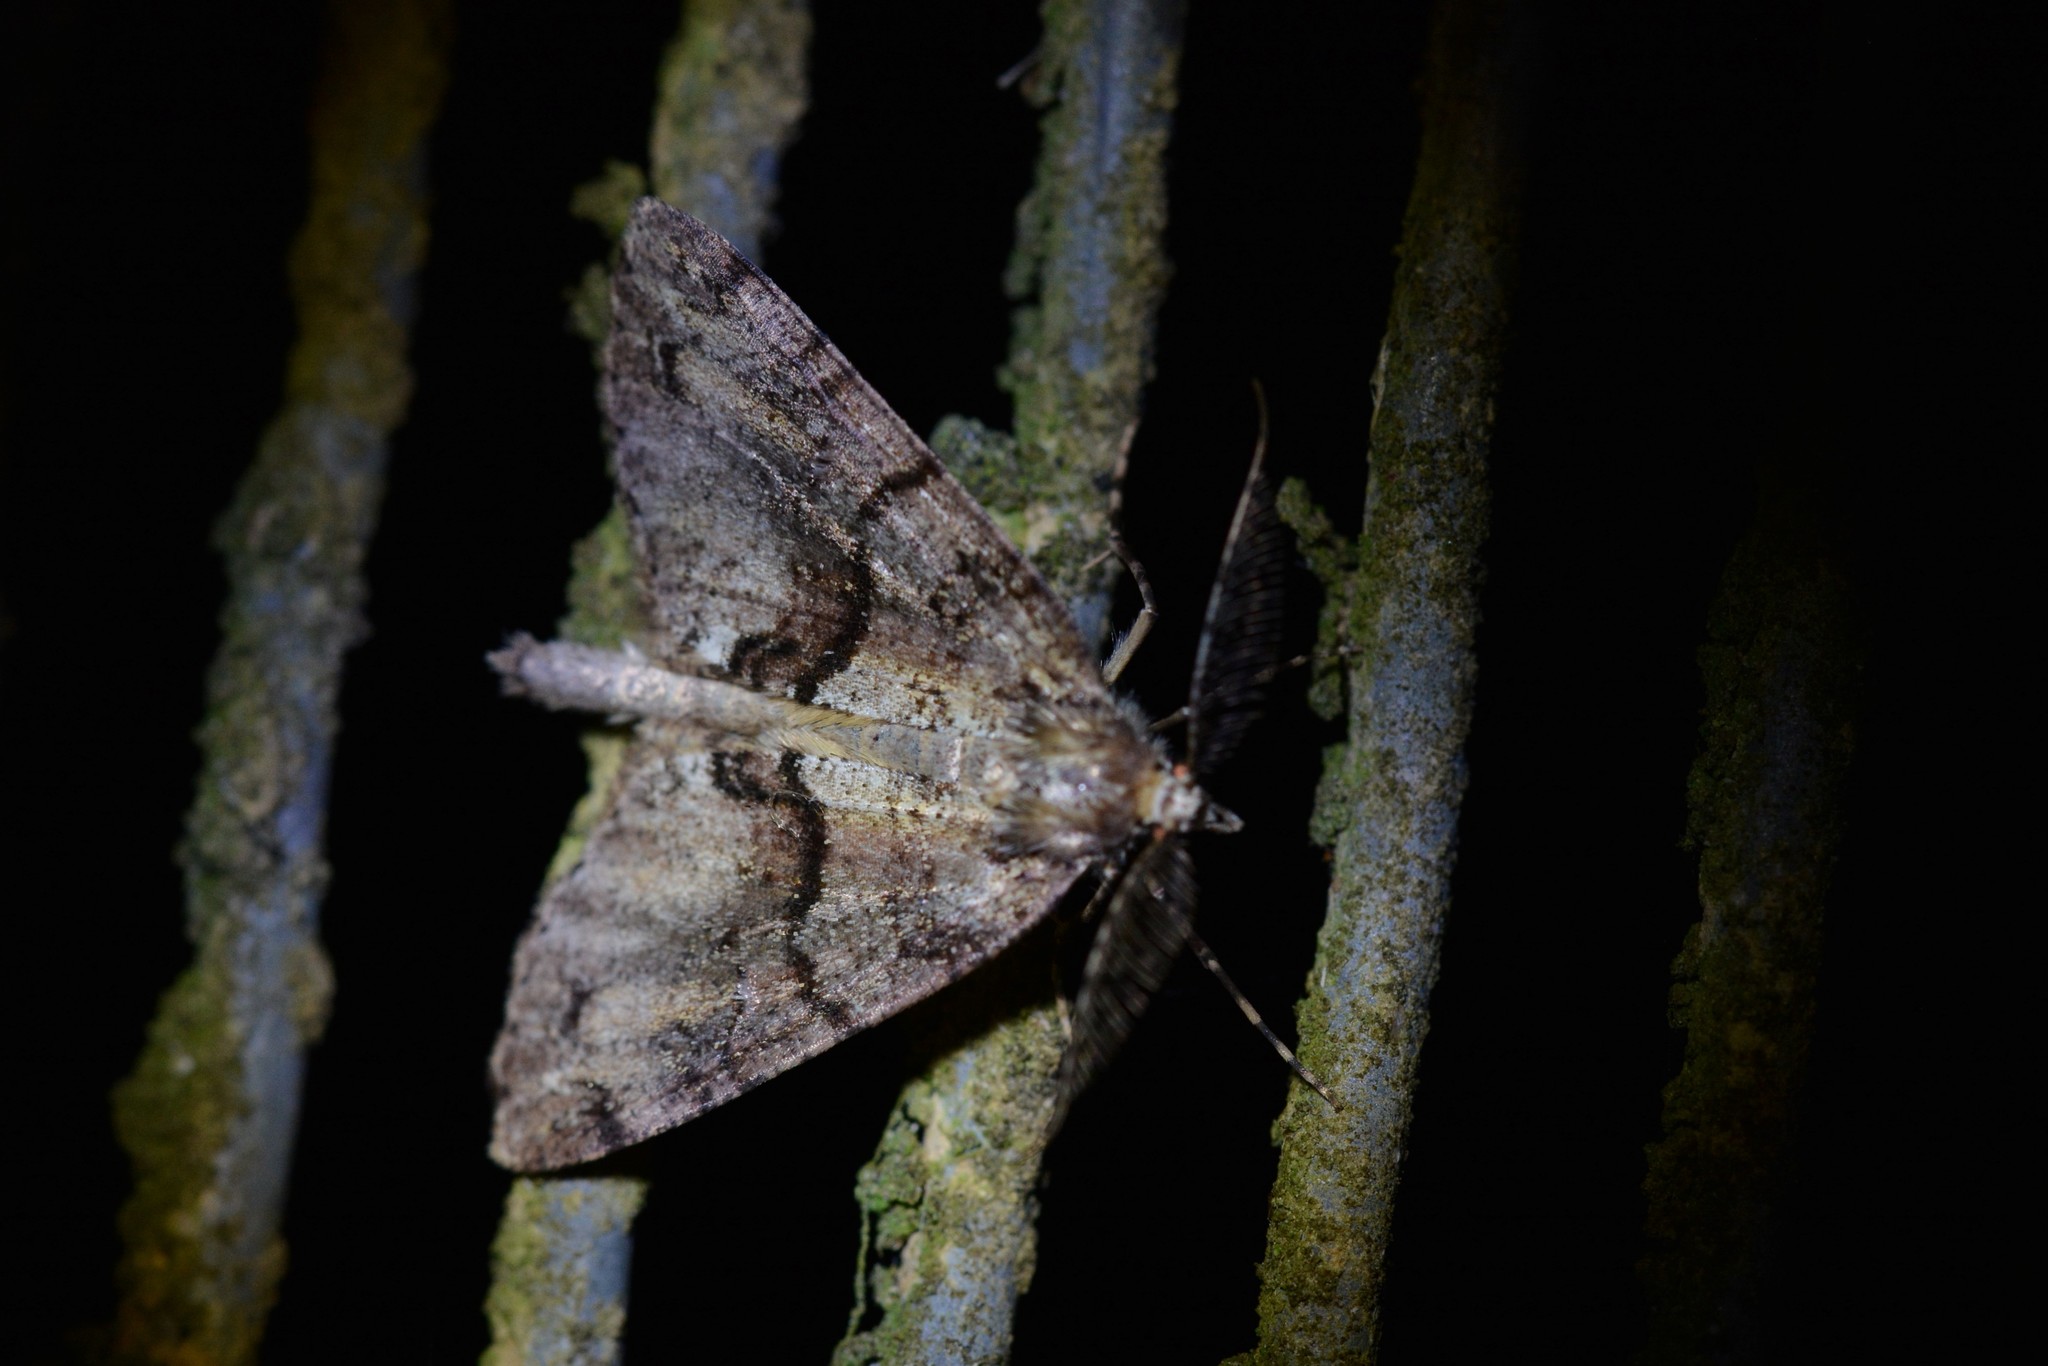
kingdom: Animalia
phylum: Arthropoda
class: Insecta
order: Lepidoptera
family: Geometridae
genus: Pseudocoremia
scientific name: Pseudocoremia suavis
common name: Common forest looper
